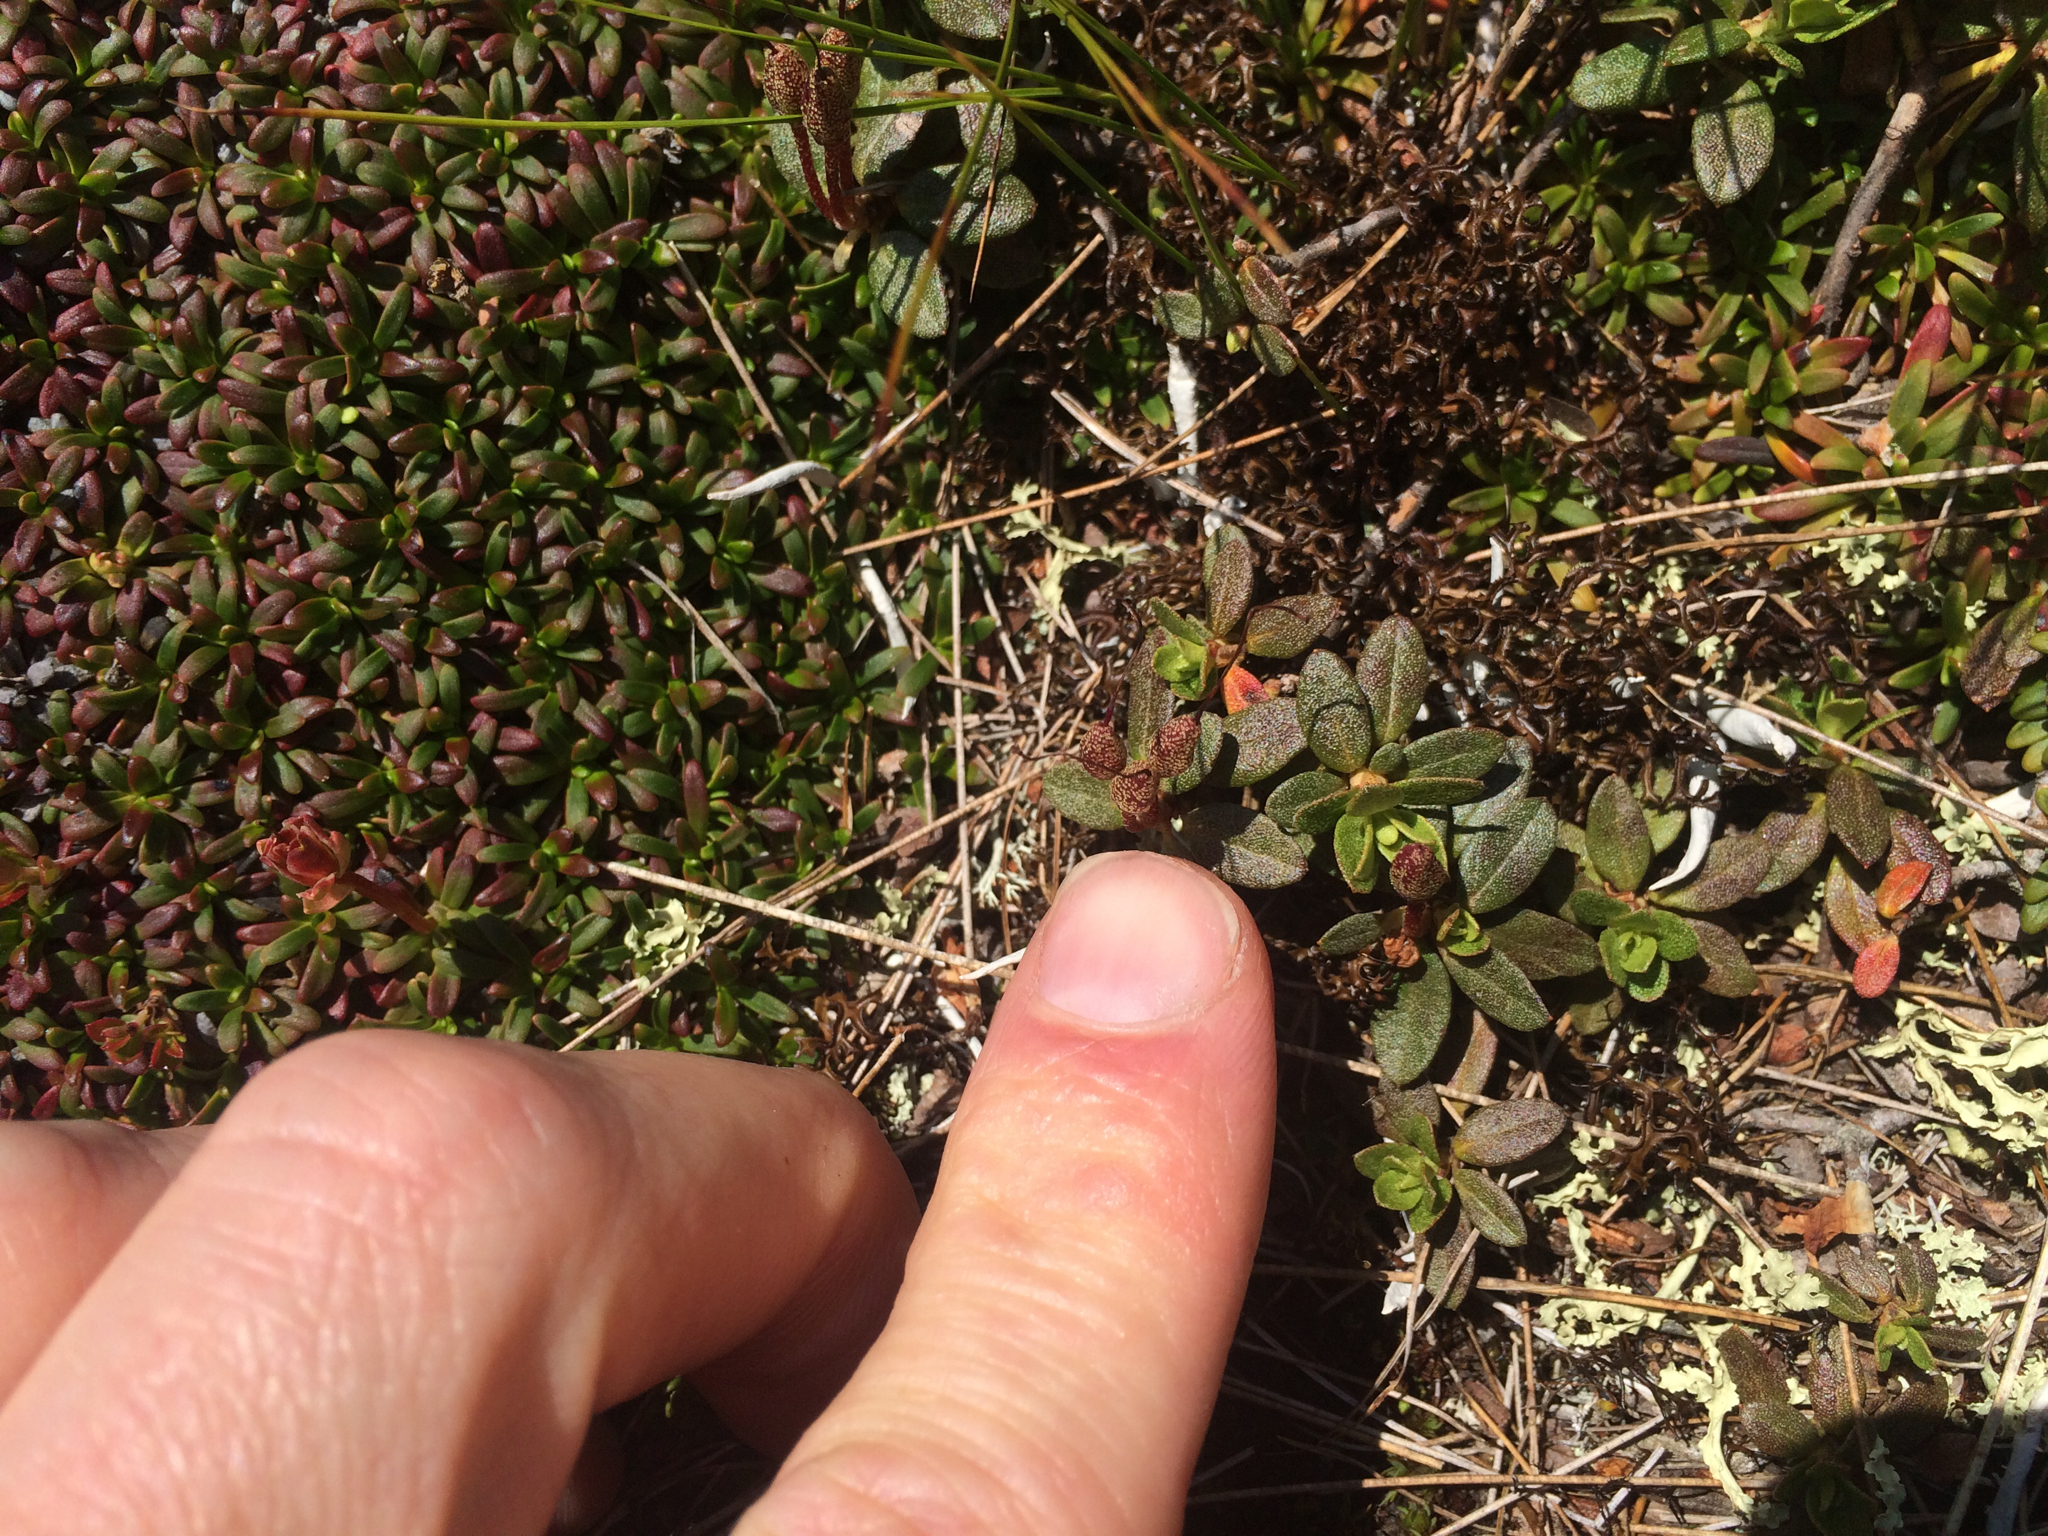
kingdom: Plantae
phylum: Tracheophyta
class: Magnoliopsida
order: Ericales
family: Ericaceae
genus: Rhododendron
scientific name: Rhododendron lapponicum
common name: Lapland rhododendron
